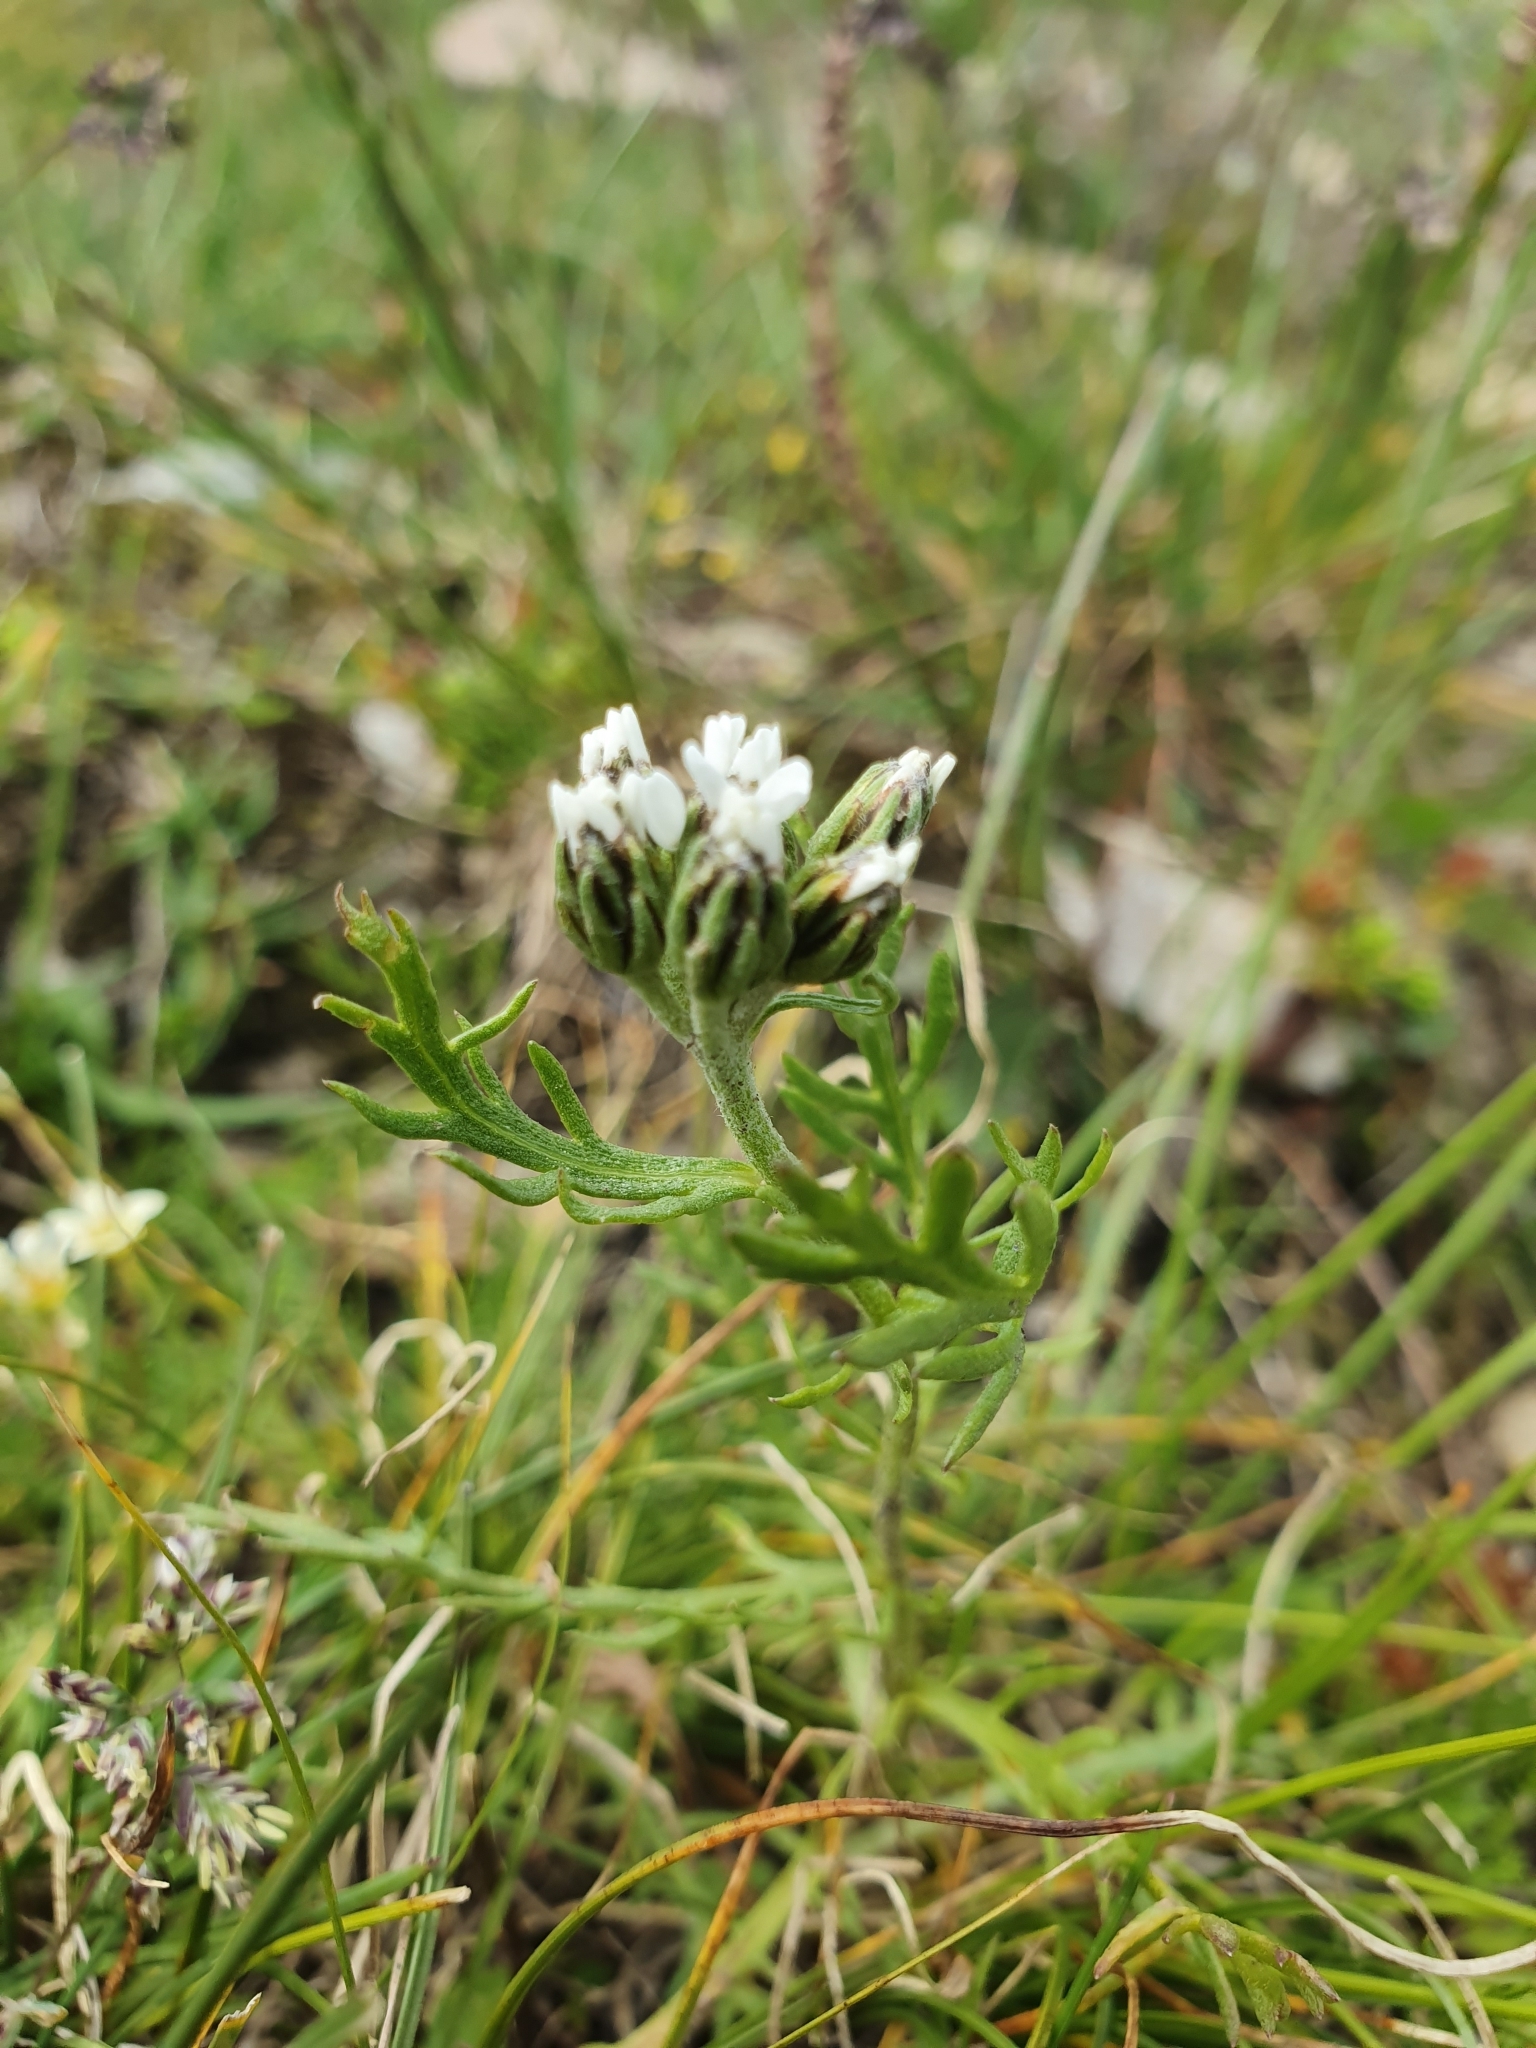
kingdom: Plantae
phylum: Tracheophyta
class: Magnoliopsida
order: Asterales
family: Asteraceae
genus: Achillea
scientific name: Achillea erba-rotta
